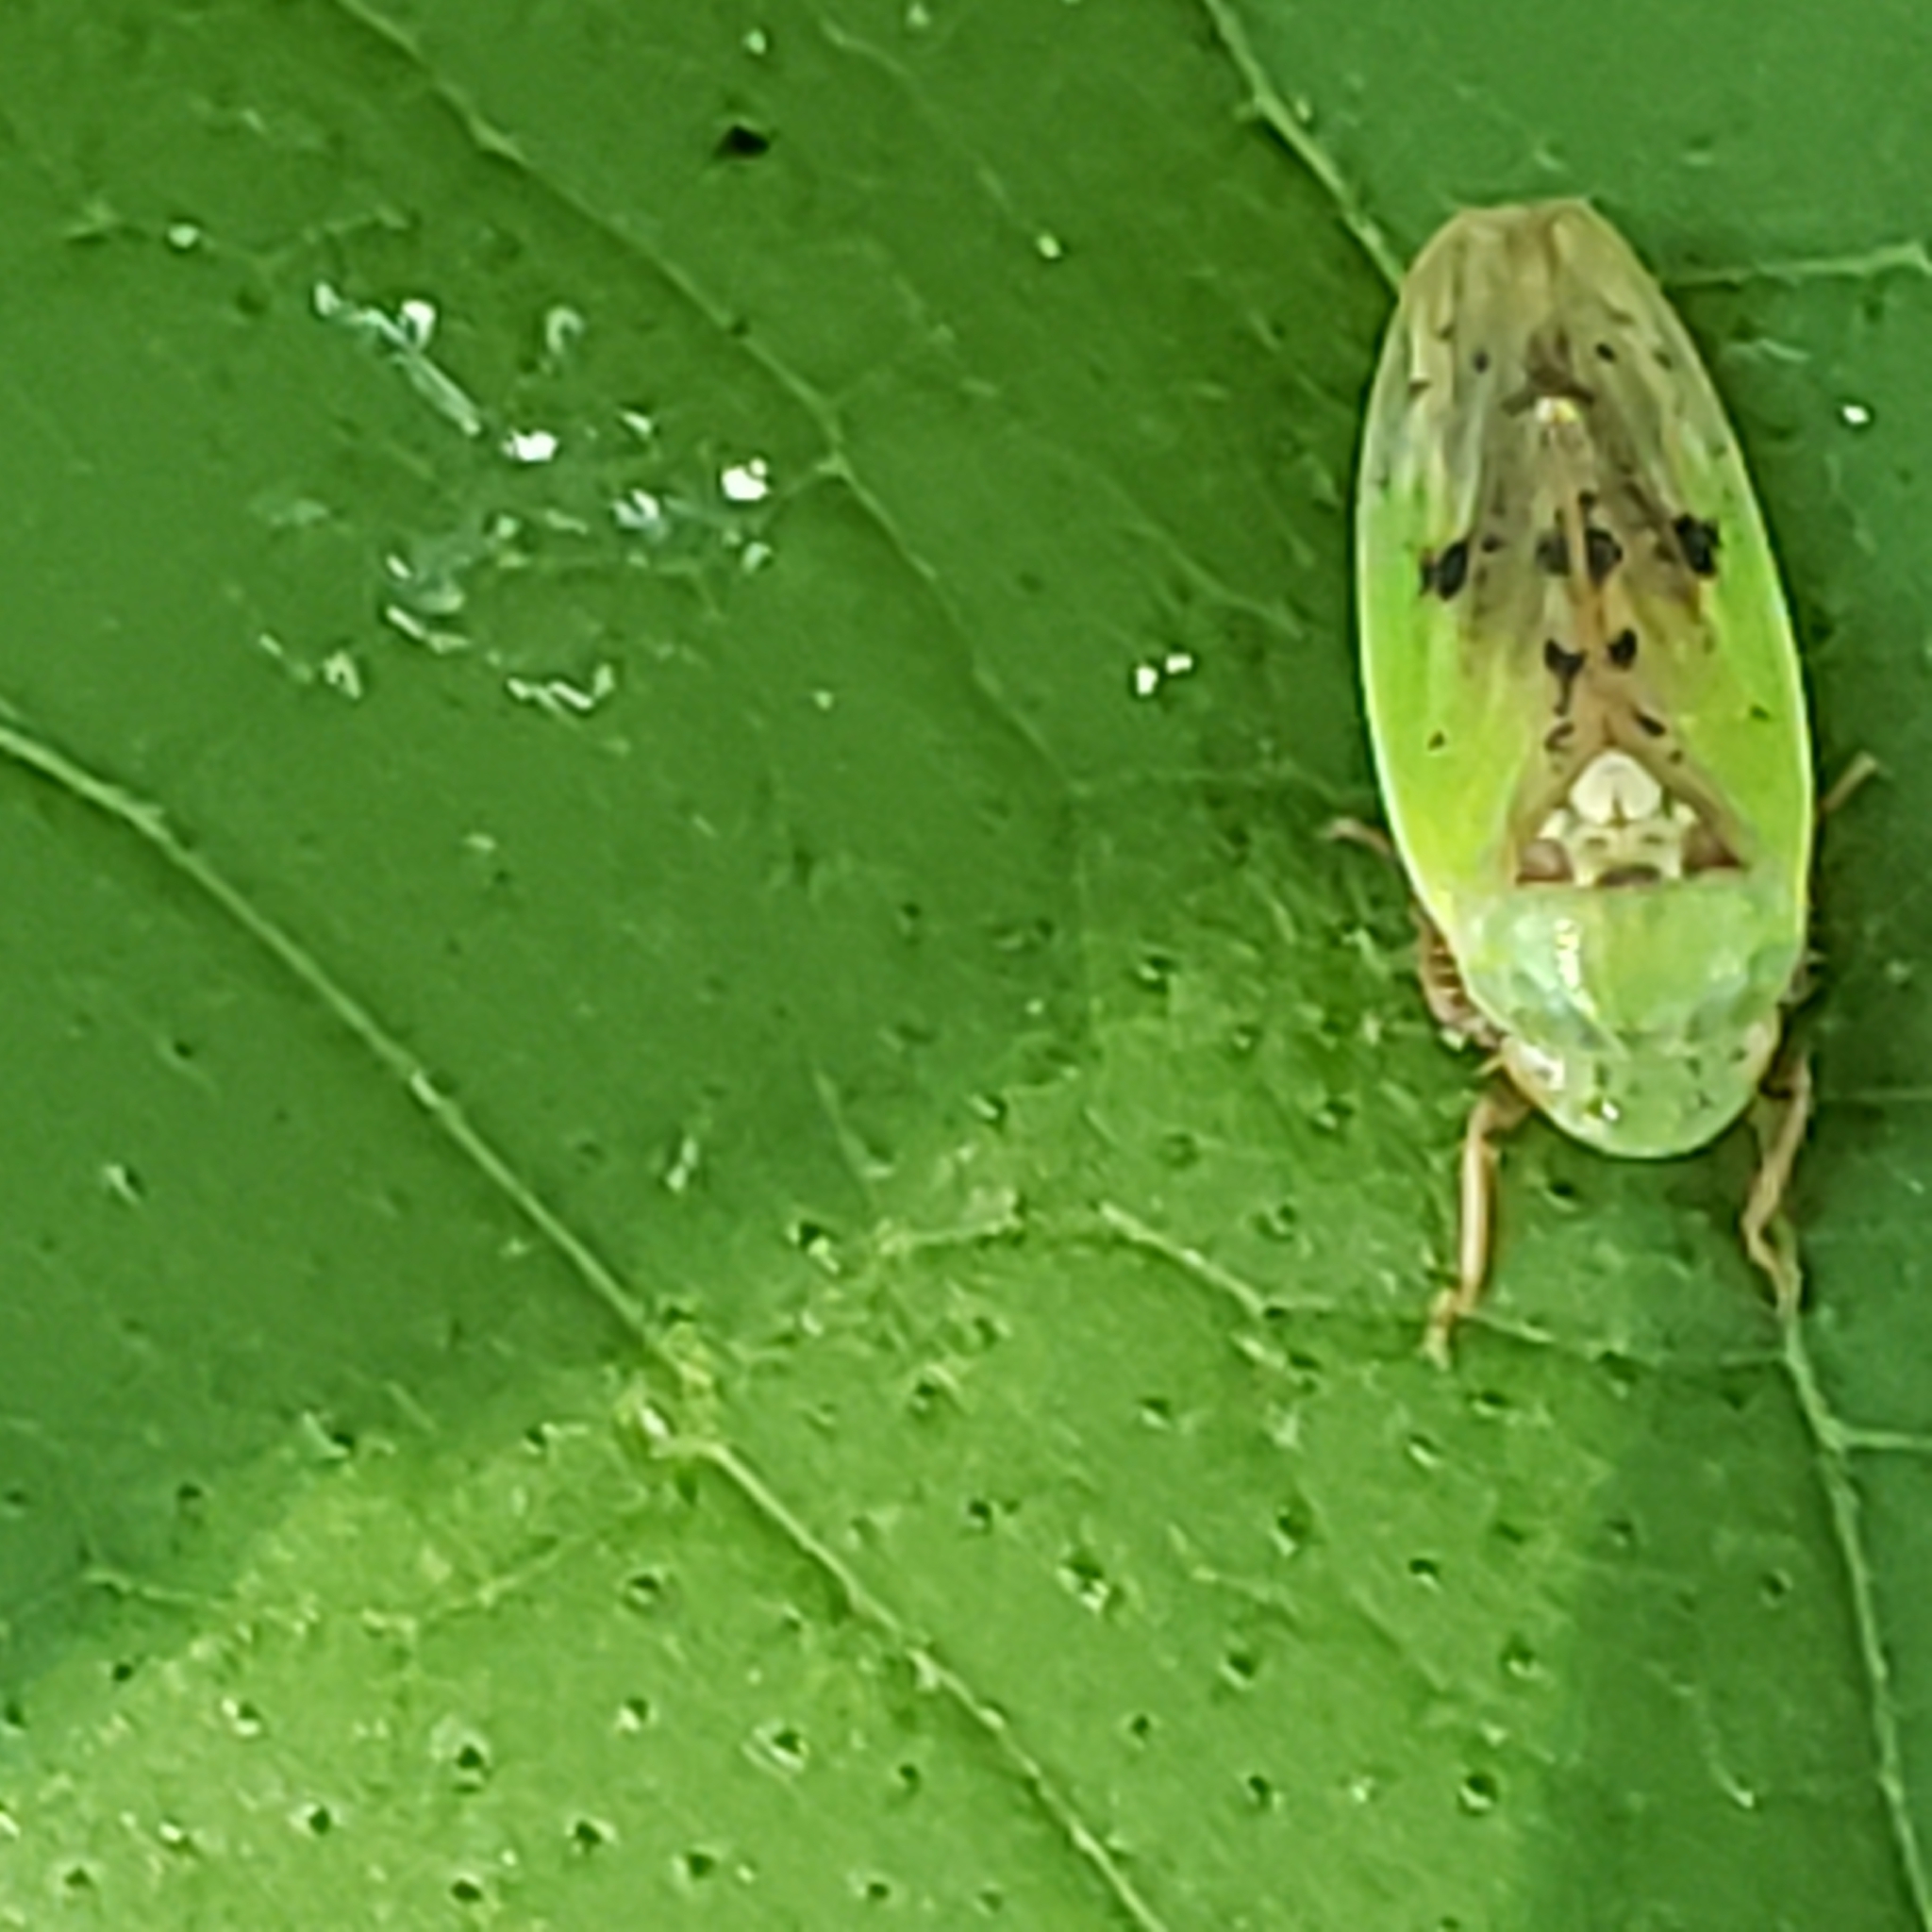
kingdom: Animalia
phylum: Arthropoda
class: Insecta
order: Hemiptera
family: Cicadellidae
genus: Ponana
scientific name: Ponana pectoralis
